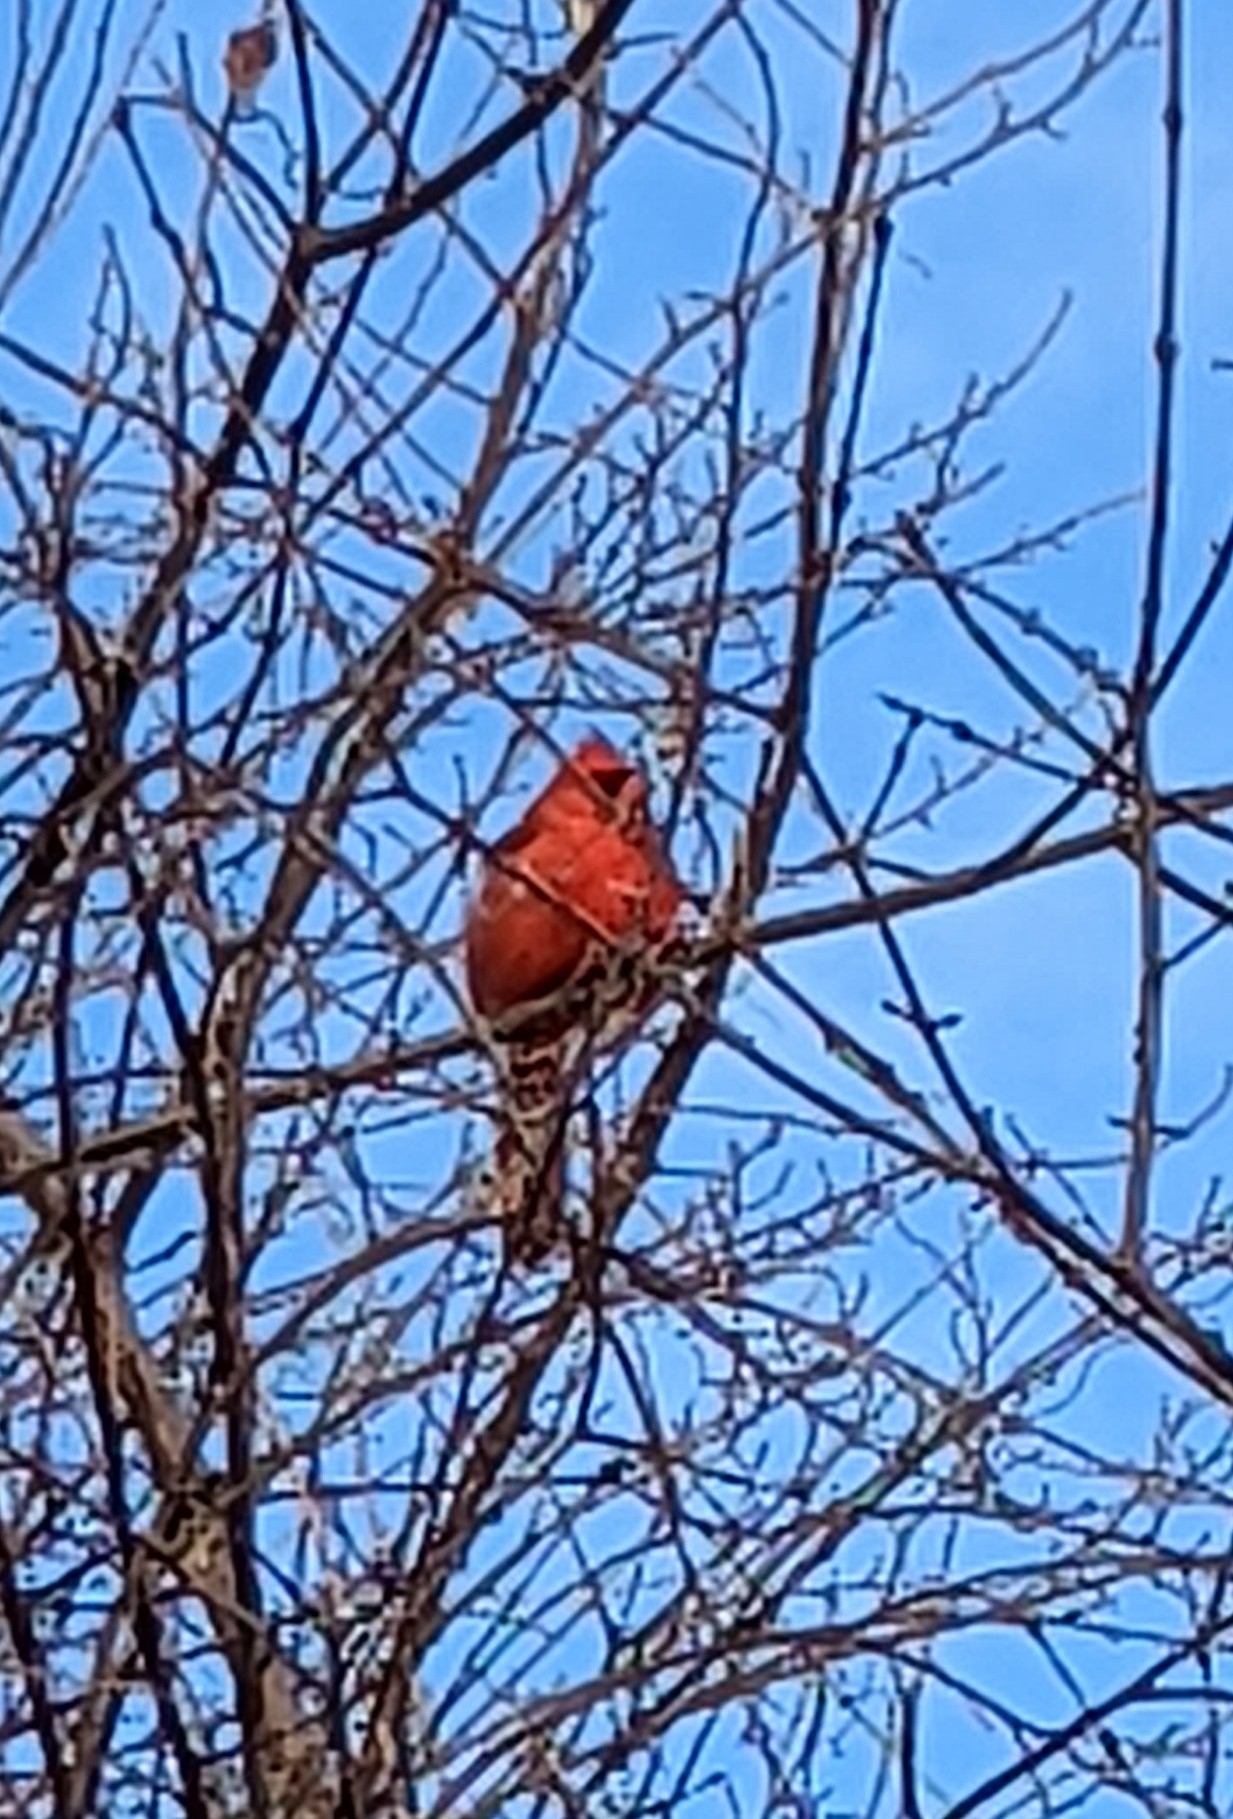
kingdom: Animalia
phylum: Chordata
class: Aves
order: Passeriformes
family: Cardinalidae
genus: Cardinalis
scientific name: Cardinalis cardinalis
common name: Northern cardinal
